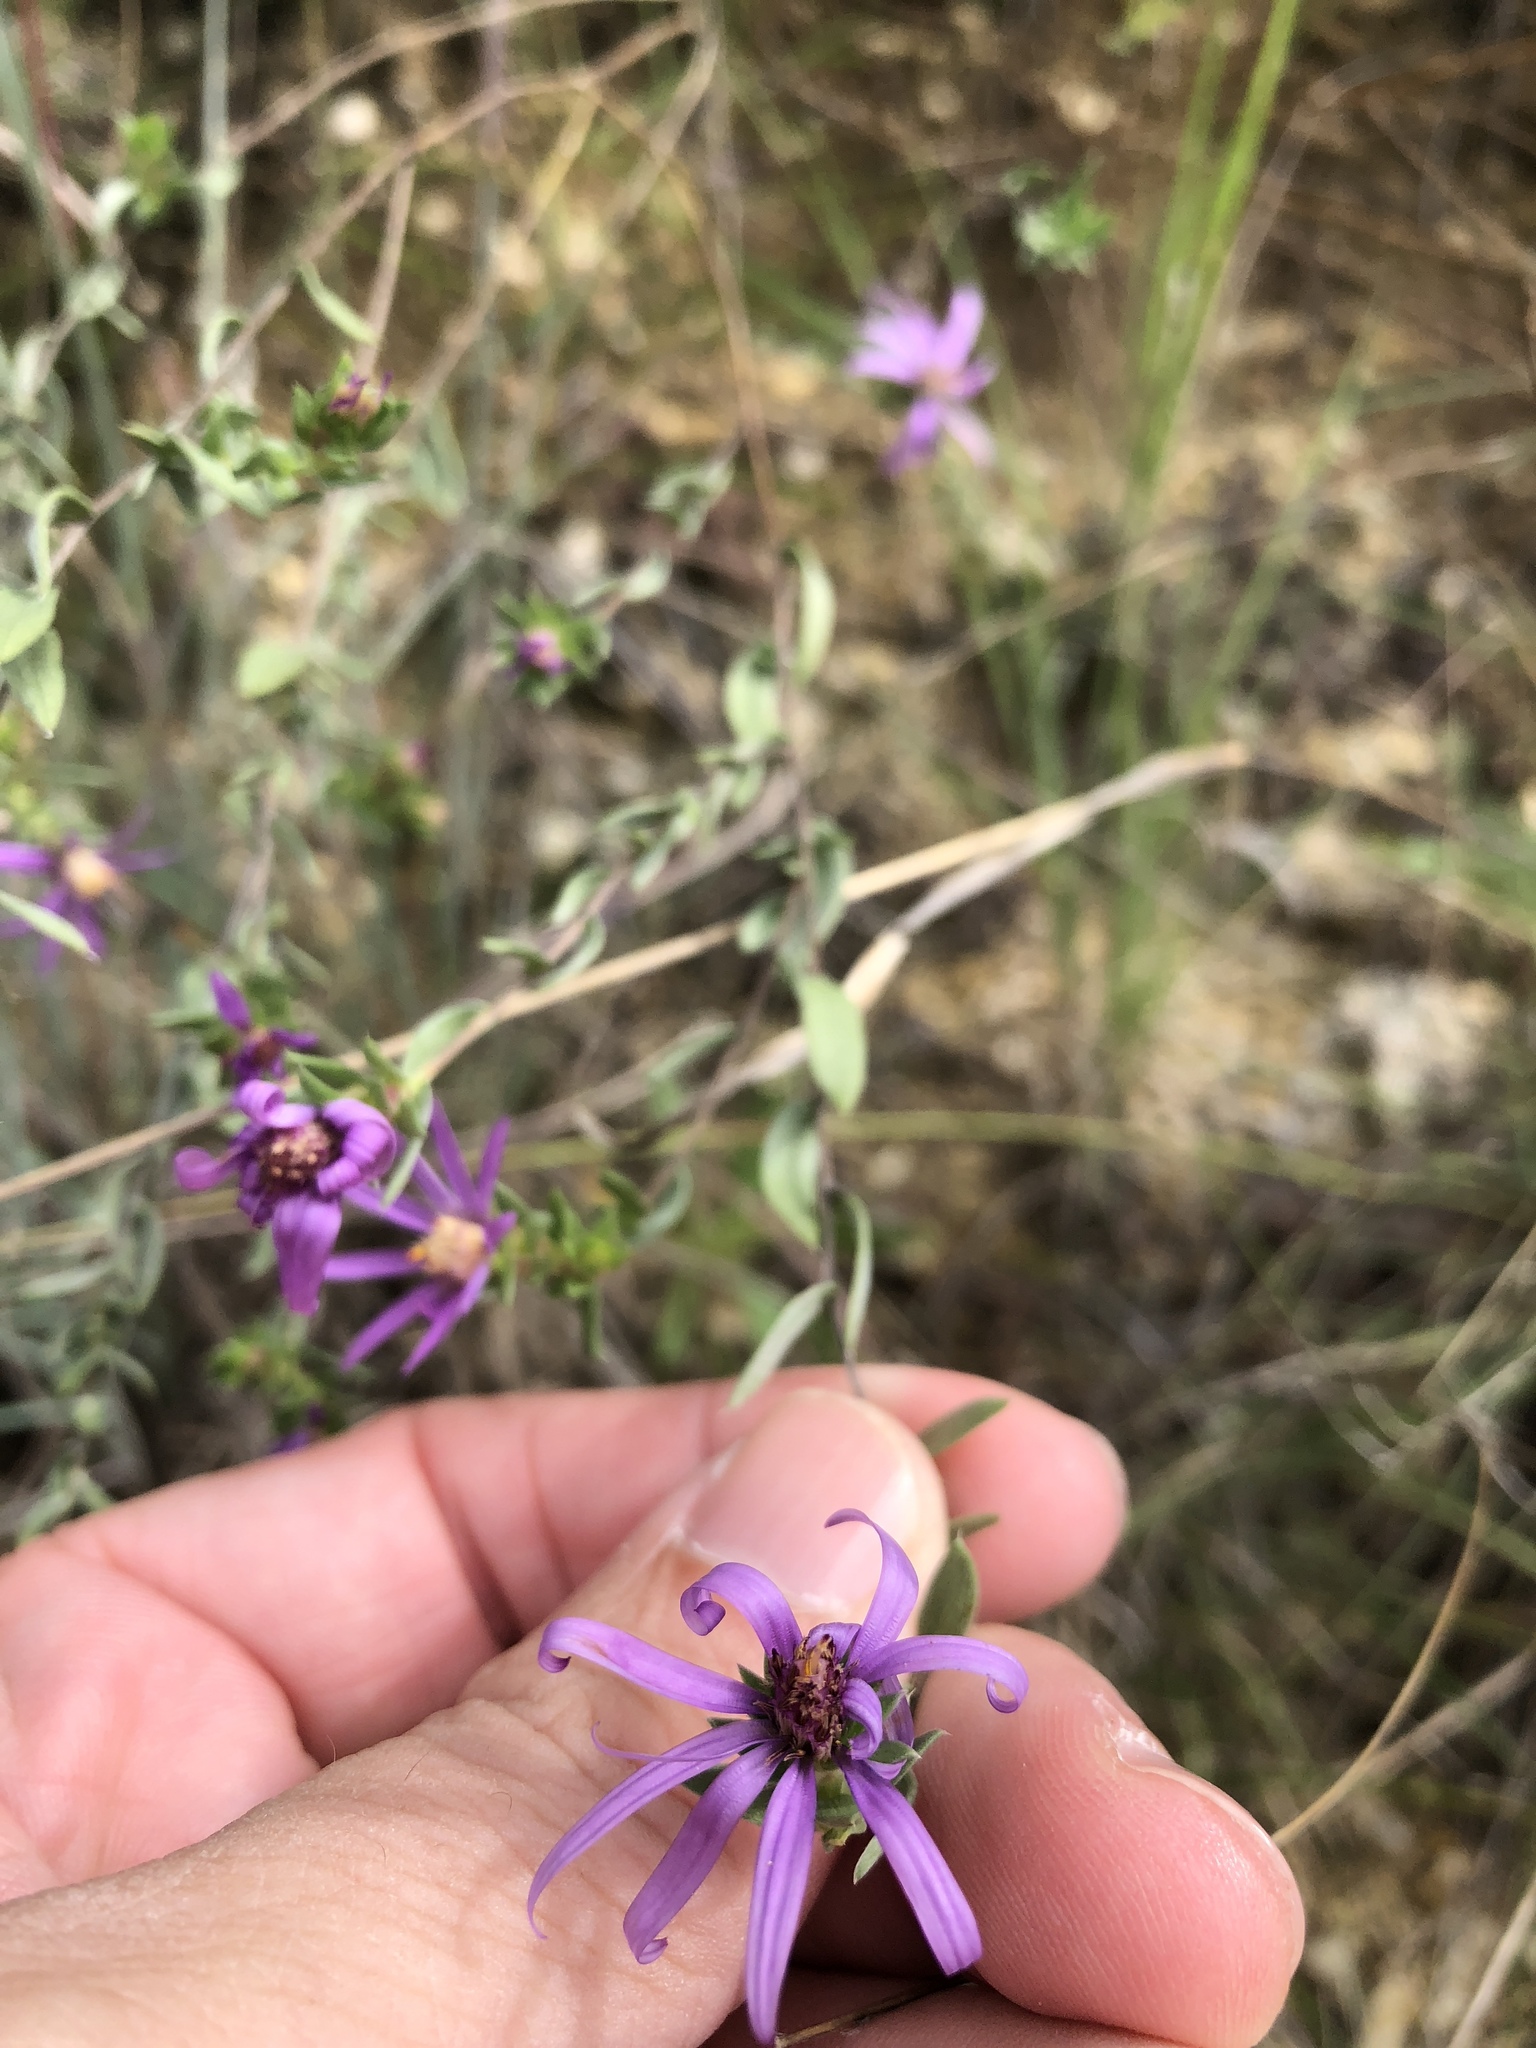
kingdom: Plantae
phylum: Tracheophyta
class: Magnoliopsida
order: Asterales
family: Asteraceae
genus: Symphyotrichum
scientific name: Symphyotrichum pratense
